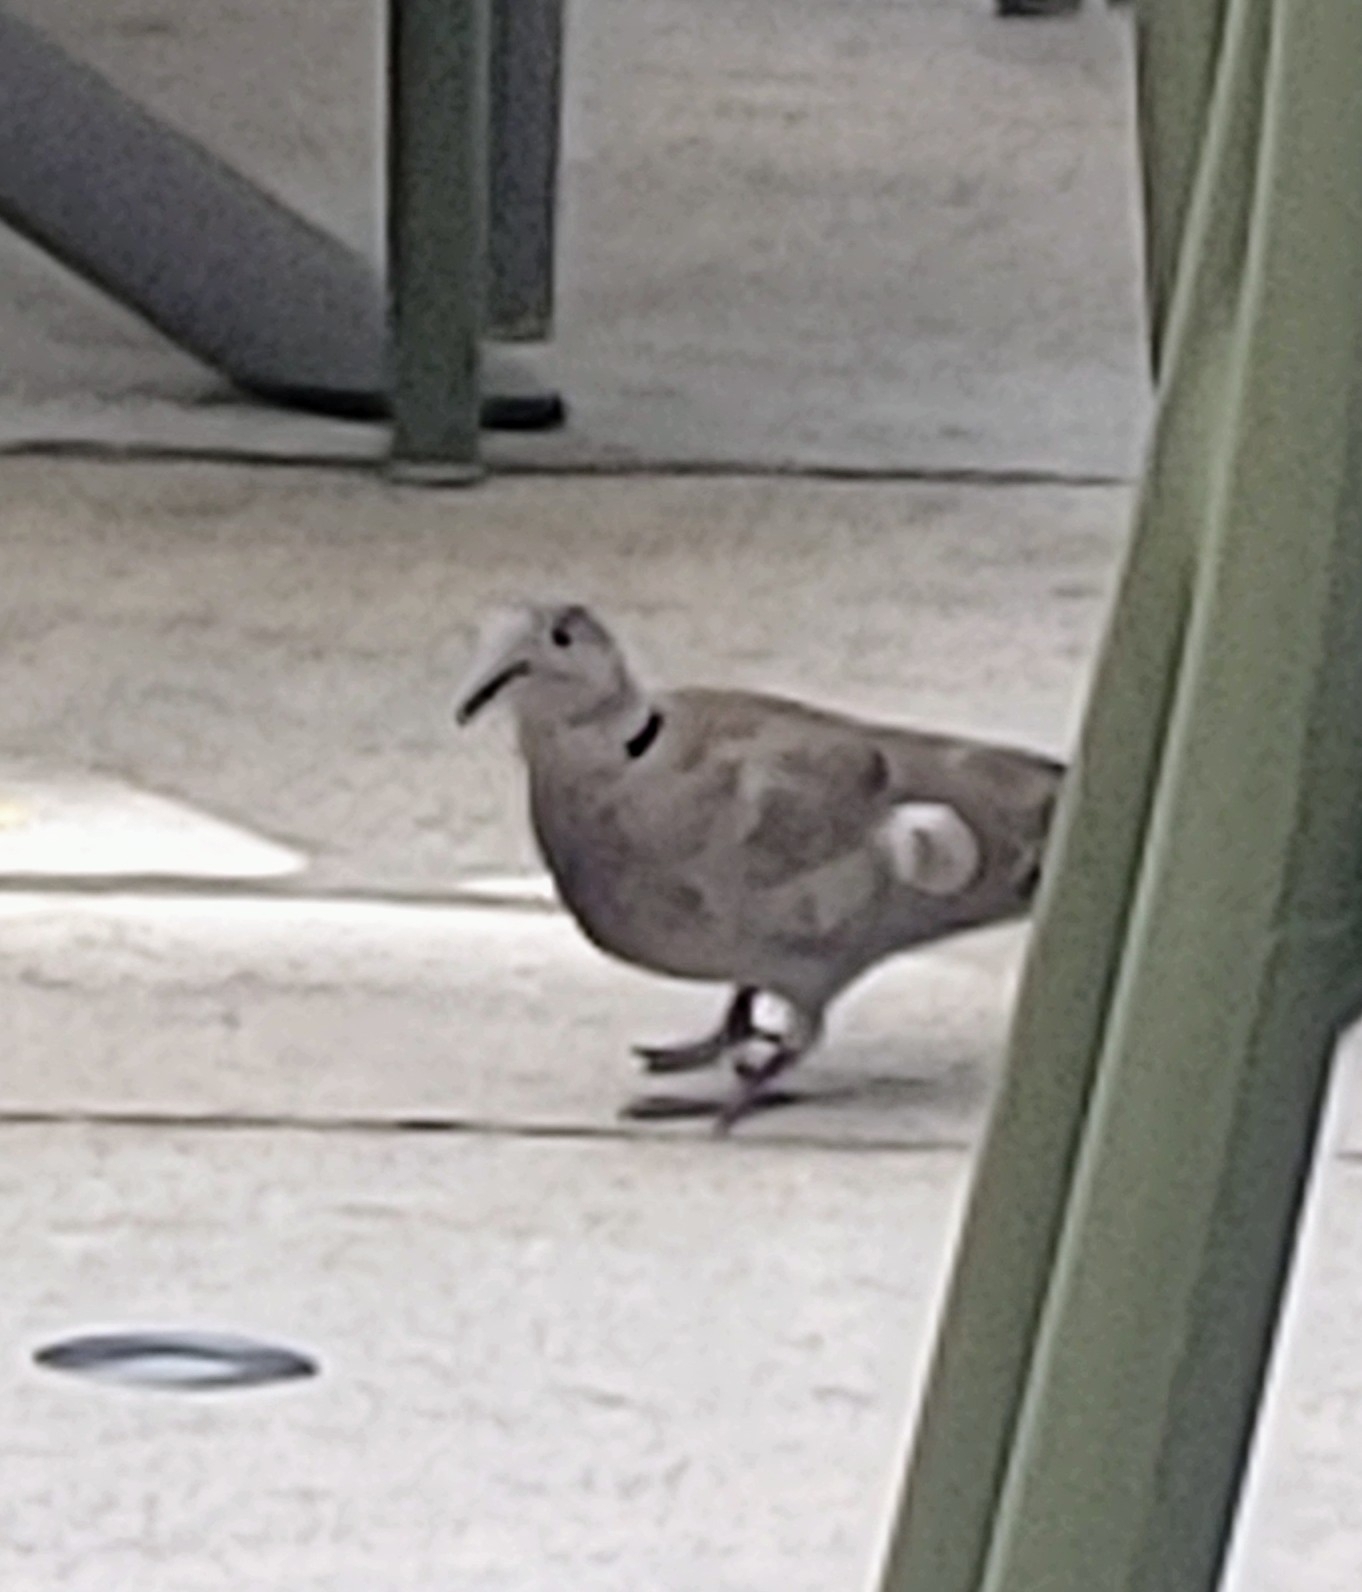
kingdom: Animalia
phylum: Chordata
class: Aves
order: Columbiformes
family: Columbidae
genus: Streptopelia
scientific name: Streptopelia decaocto
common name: Eurasian collared dove
